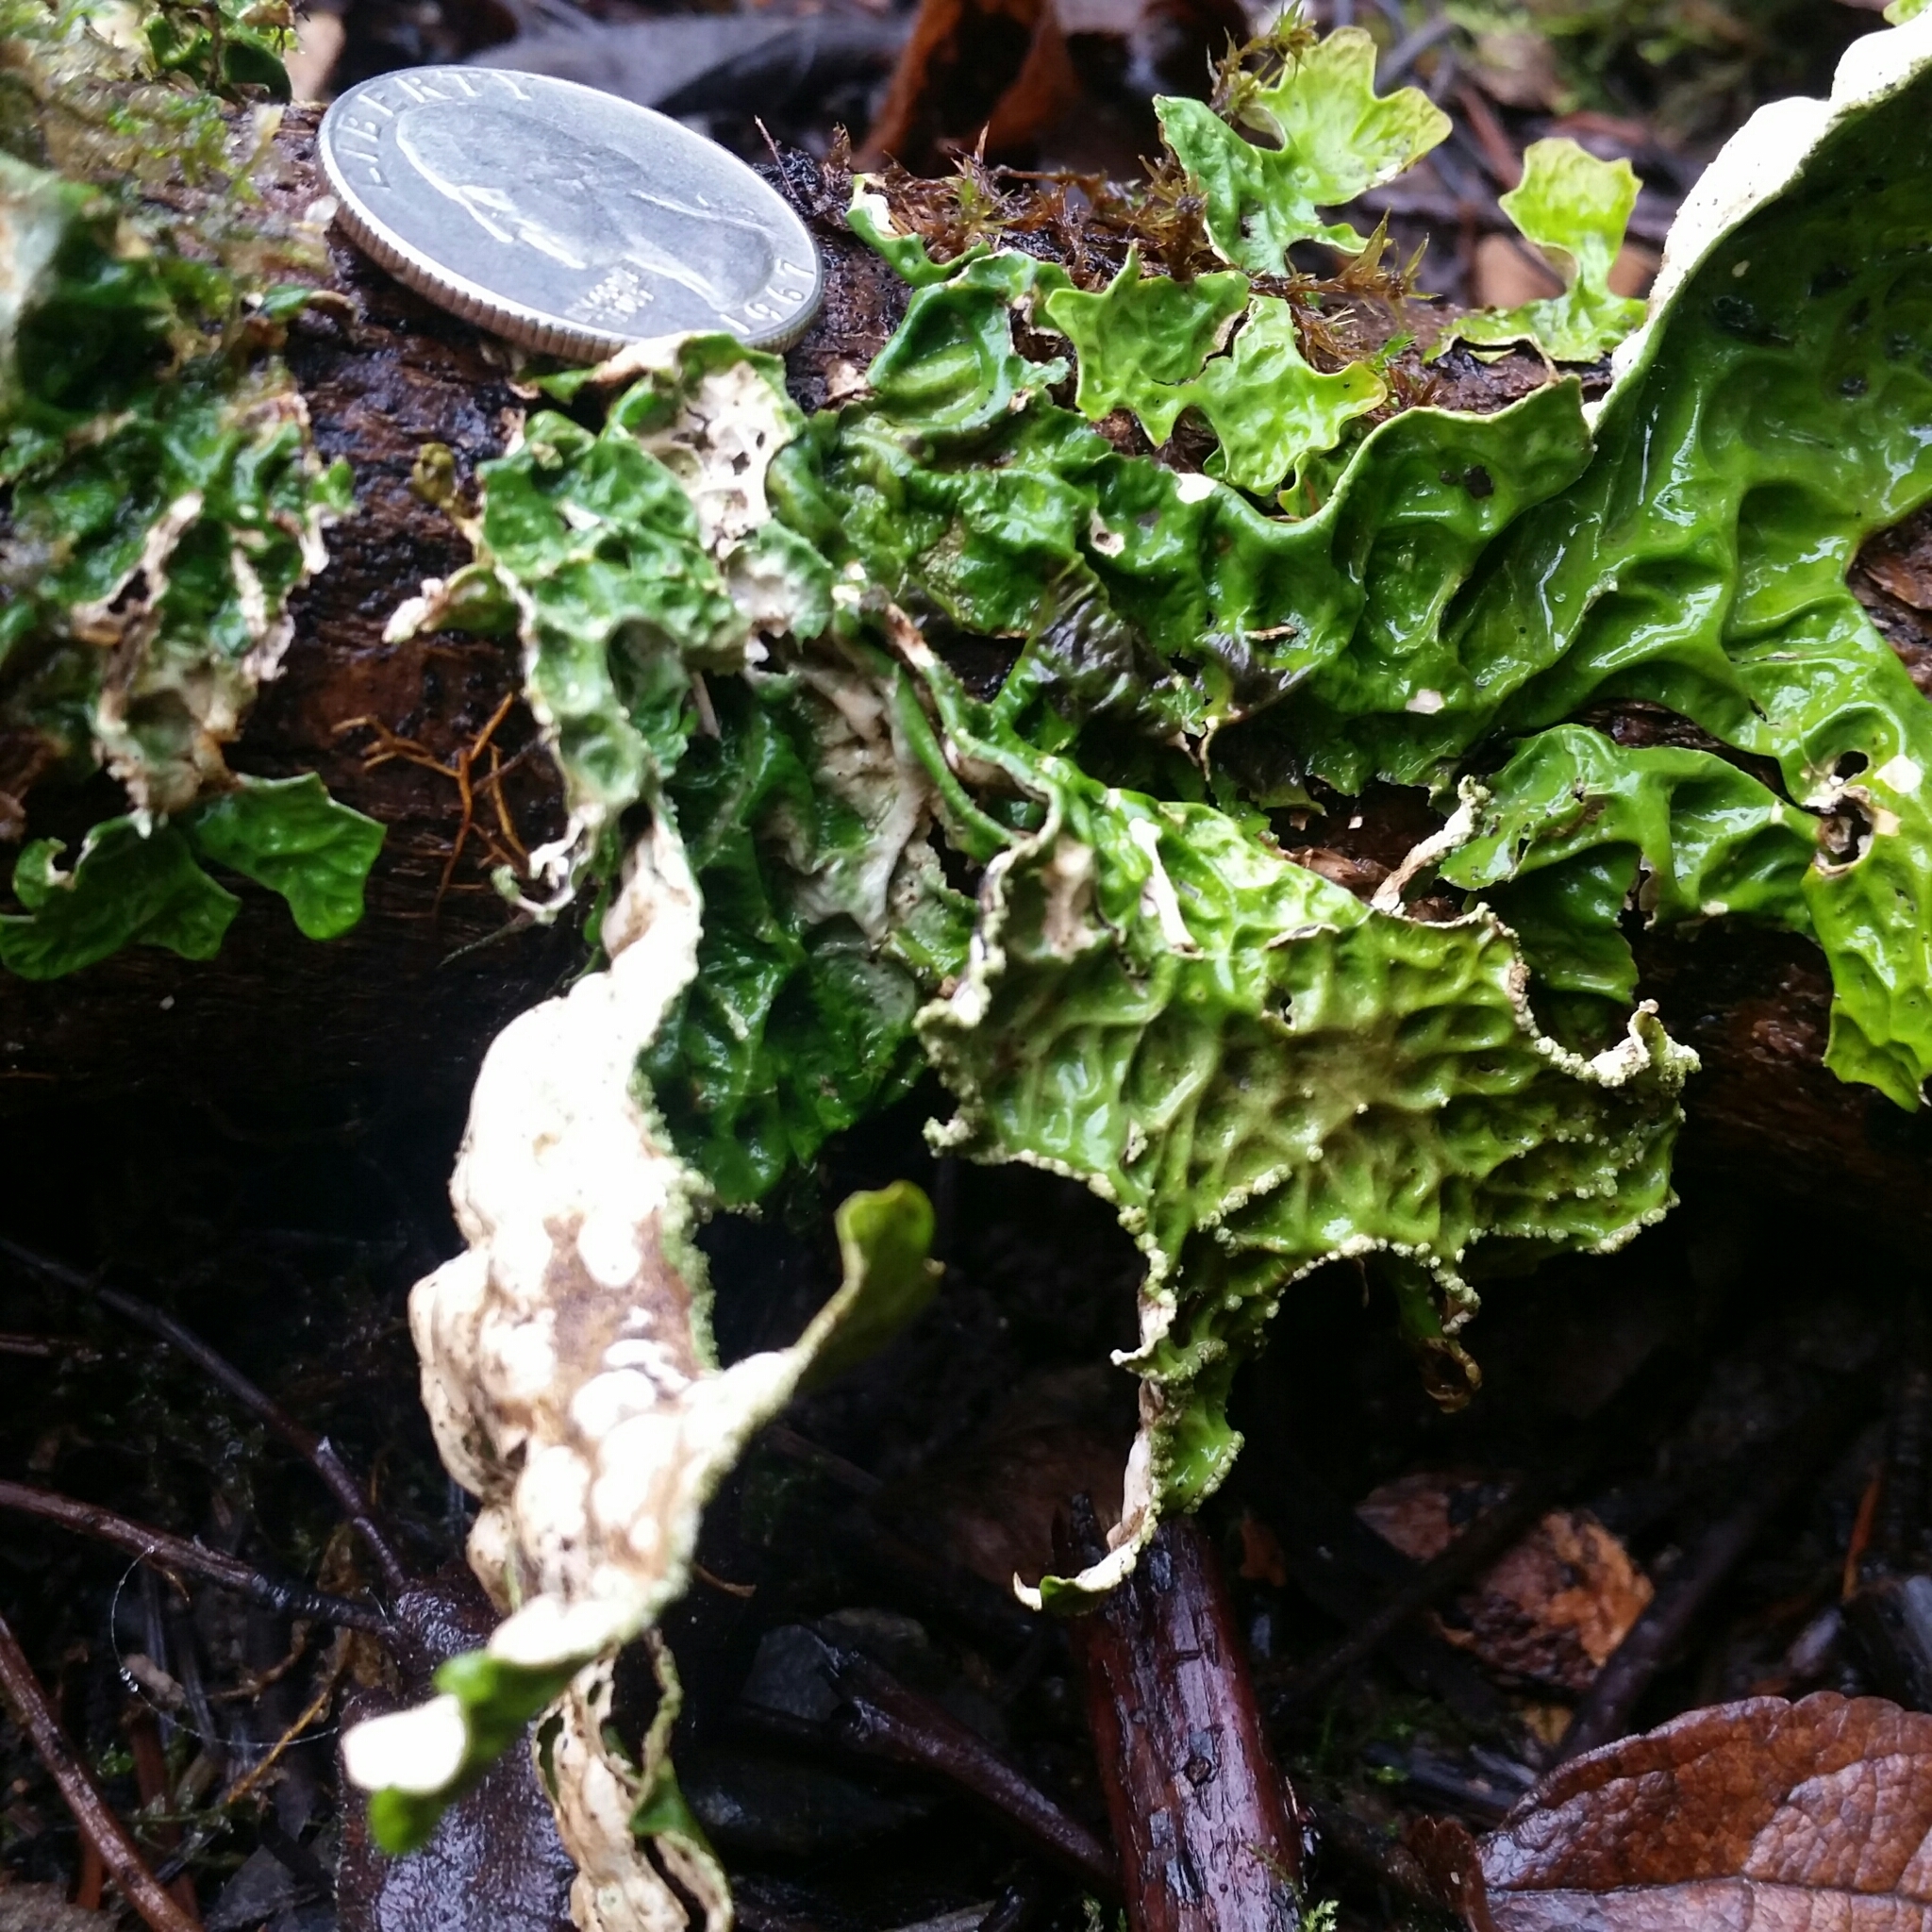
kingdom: Fungi
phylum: Ascomycota
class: Lecanoromycetes
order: Peltigerales
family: Lobariaceae
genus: Lobaria
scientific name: Lobaria pulmonaria
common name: Lungwort
